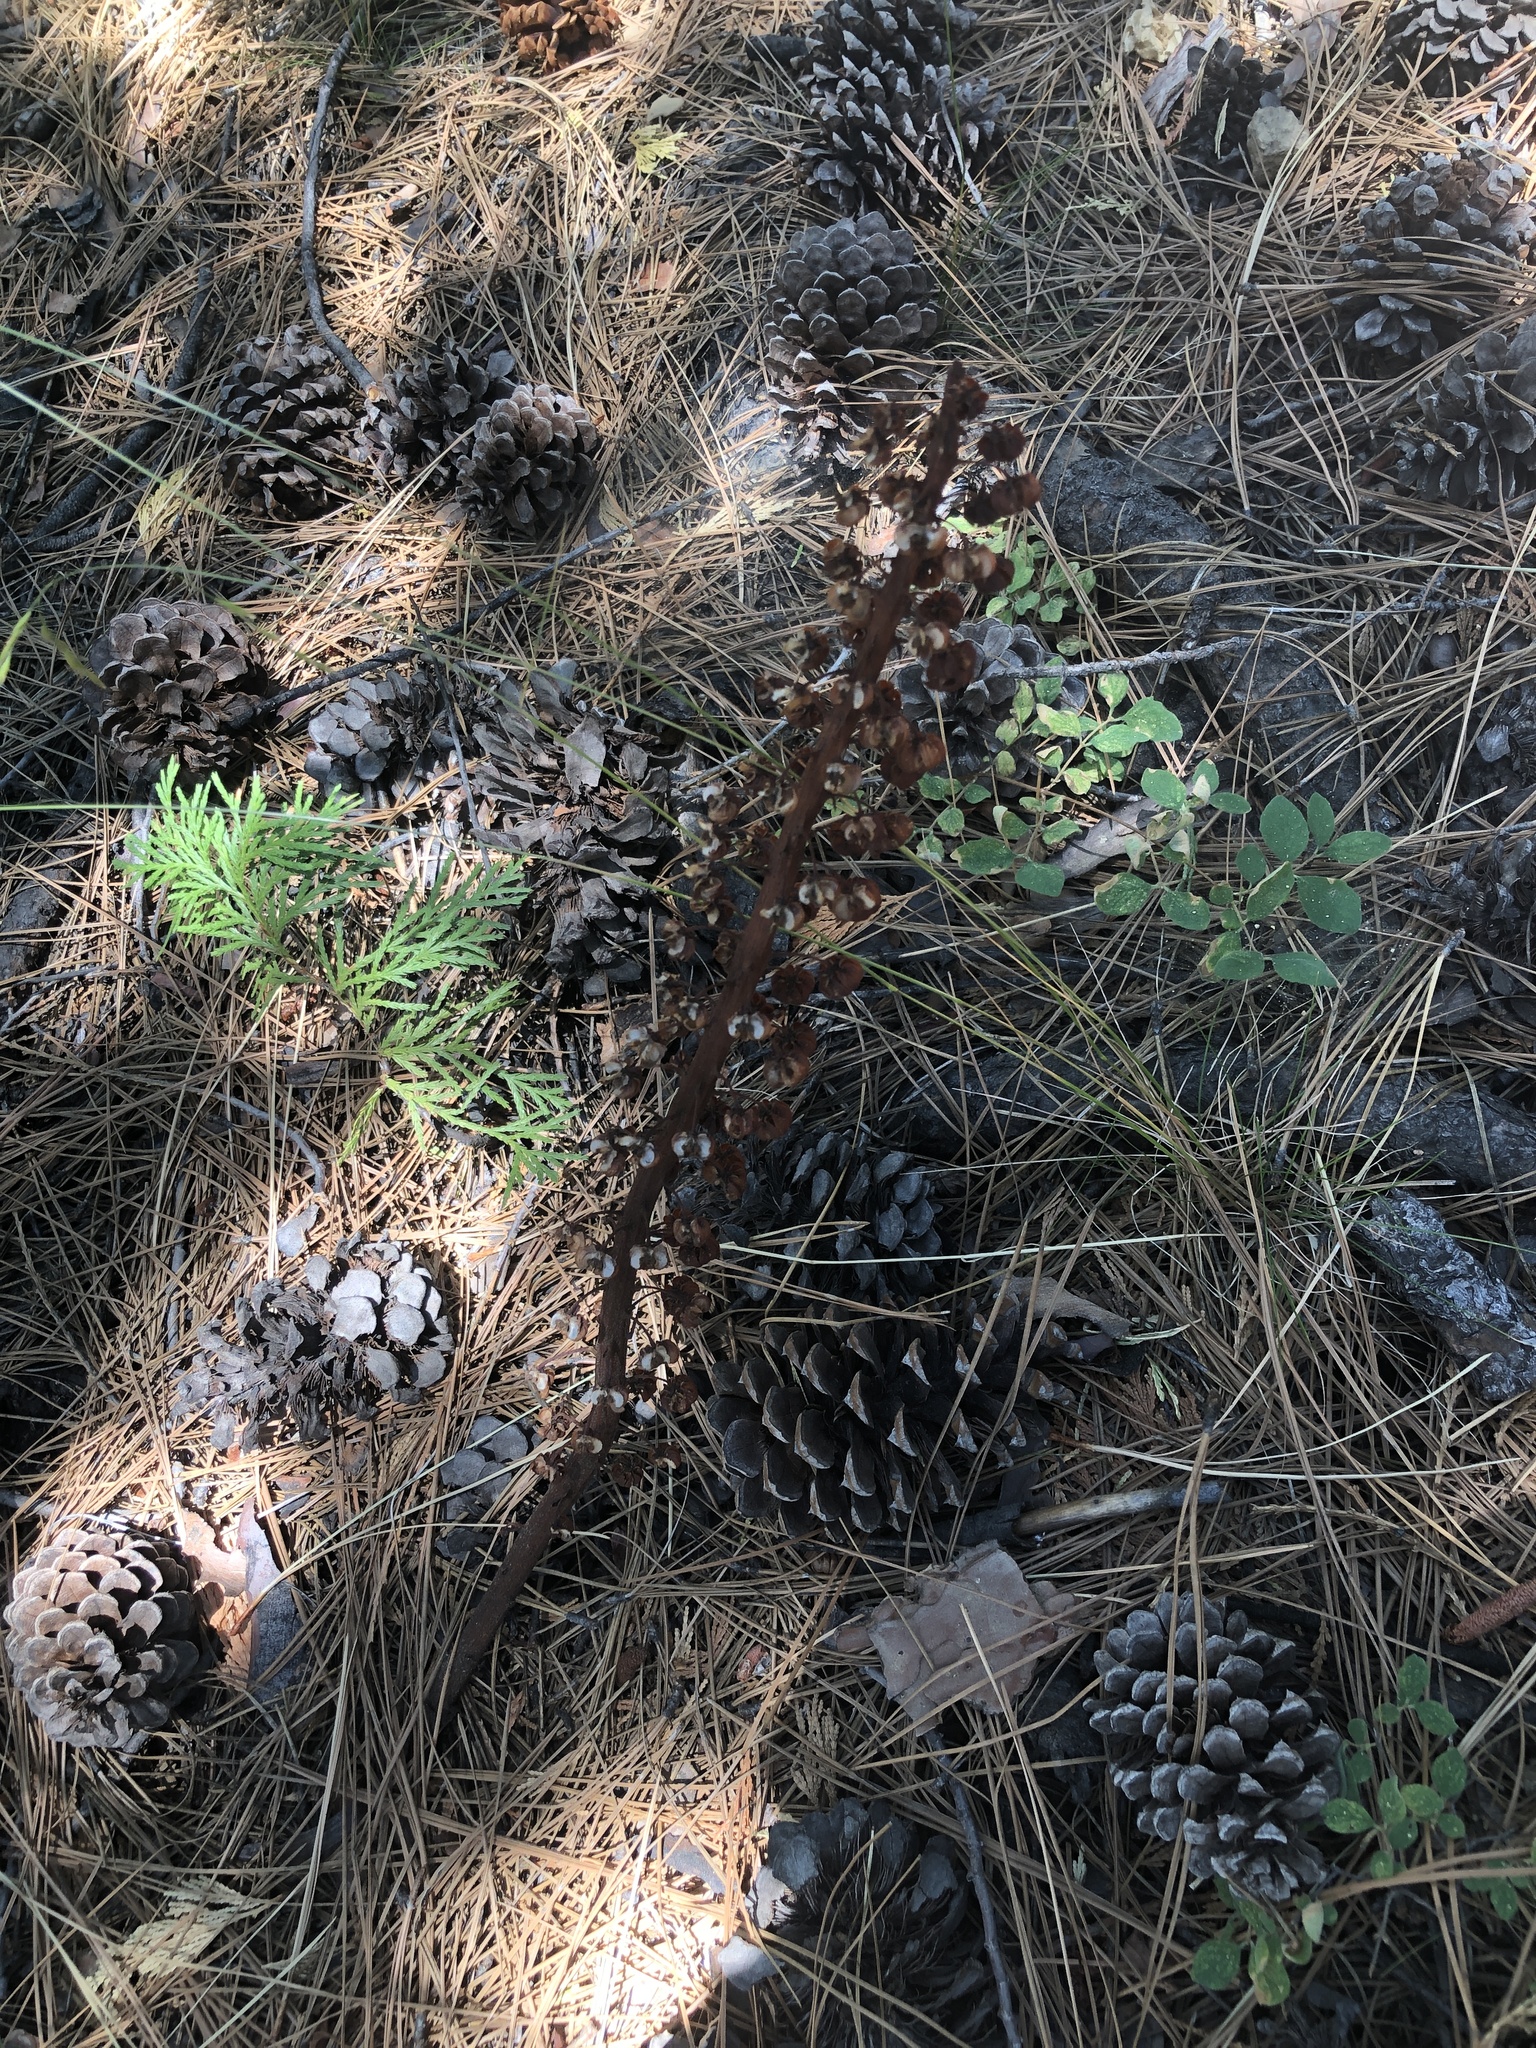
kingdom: Plantae
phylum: Tracheophyta
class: Magnoliopsida
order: Ericales
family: Ericaceae
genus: Pterospora
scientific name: Pterospora andromedea
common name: Giant bird's-nest
